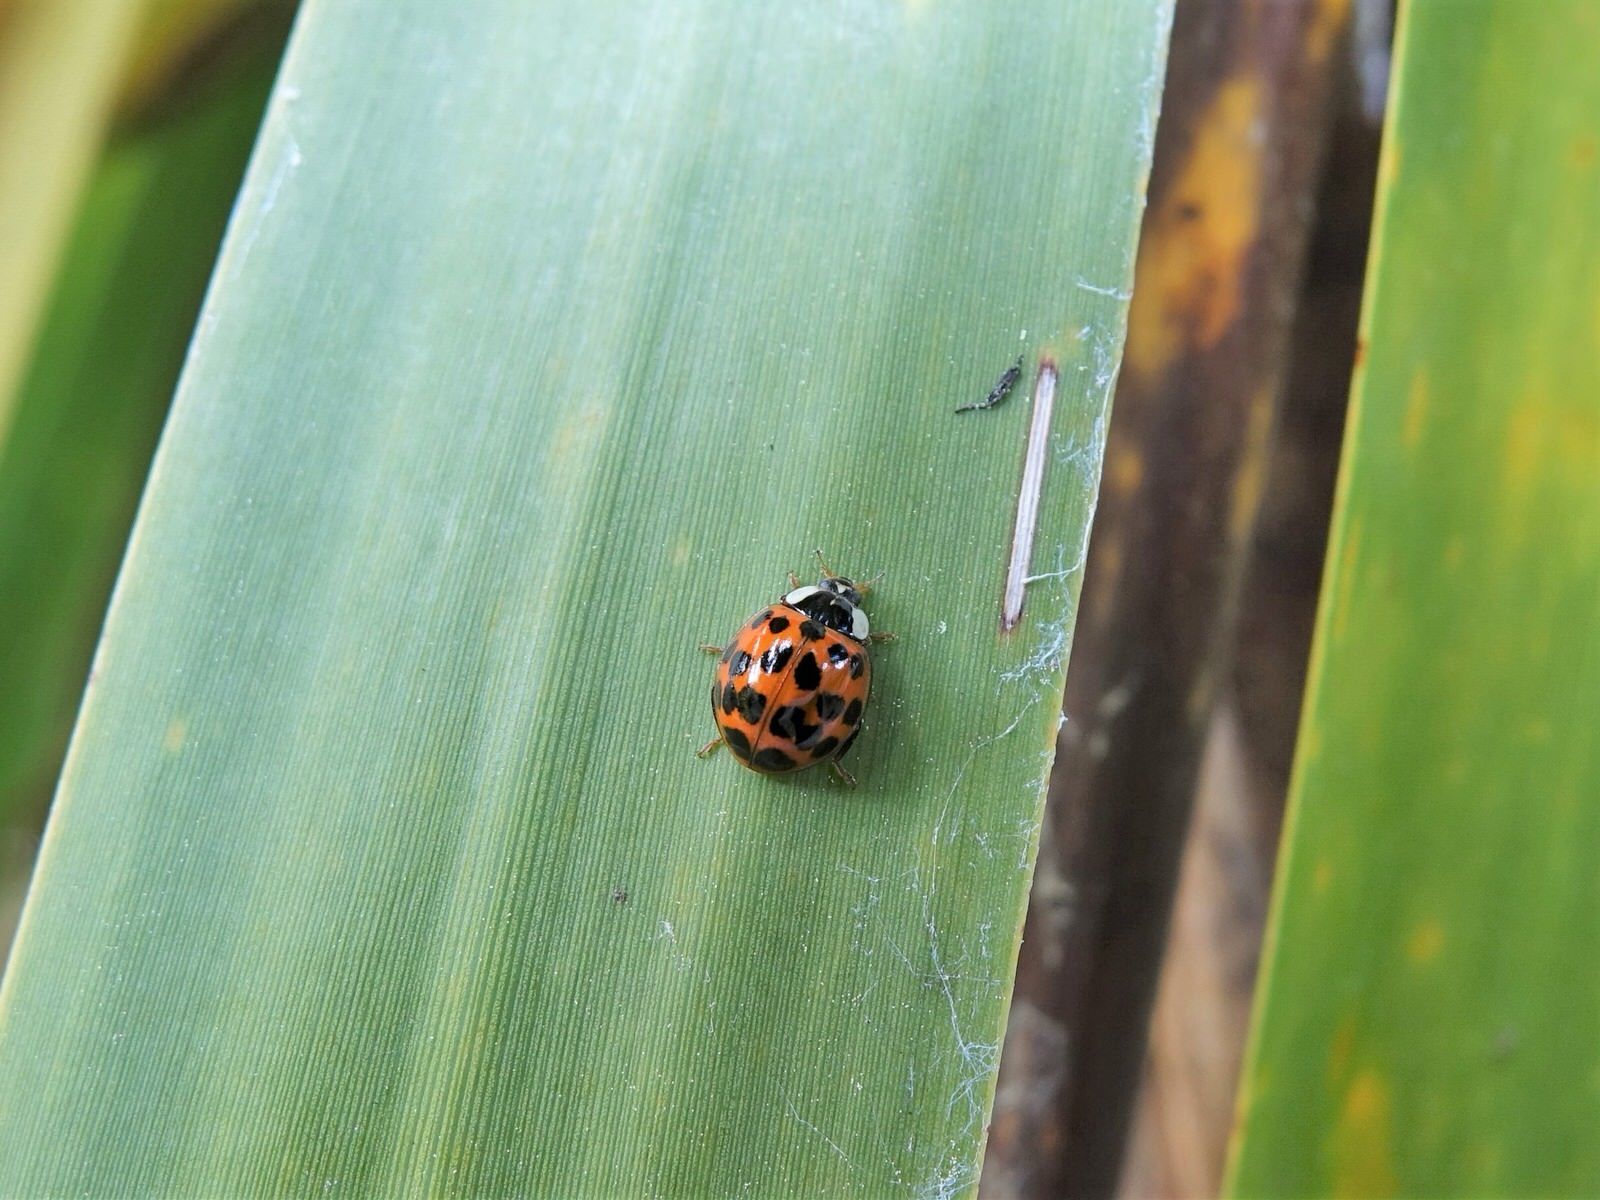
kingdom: Animalia
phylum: Arthropoda
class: Insecta
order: Coleoptera
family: Coccinellidae
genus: Harmonia
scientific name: Harmonia axyridis
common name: Harlequin ladybird
